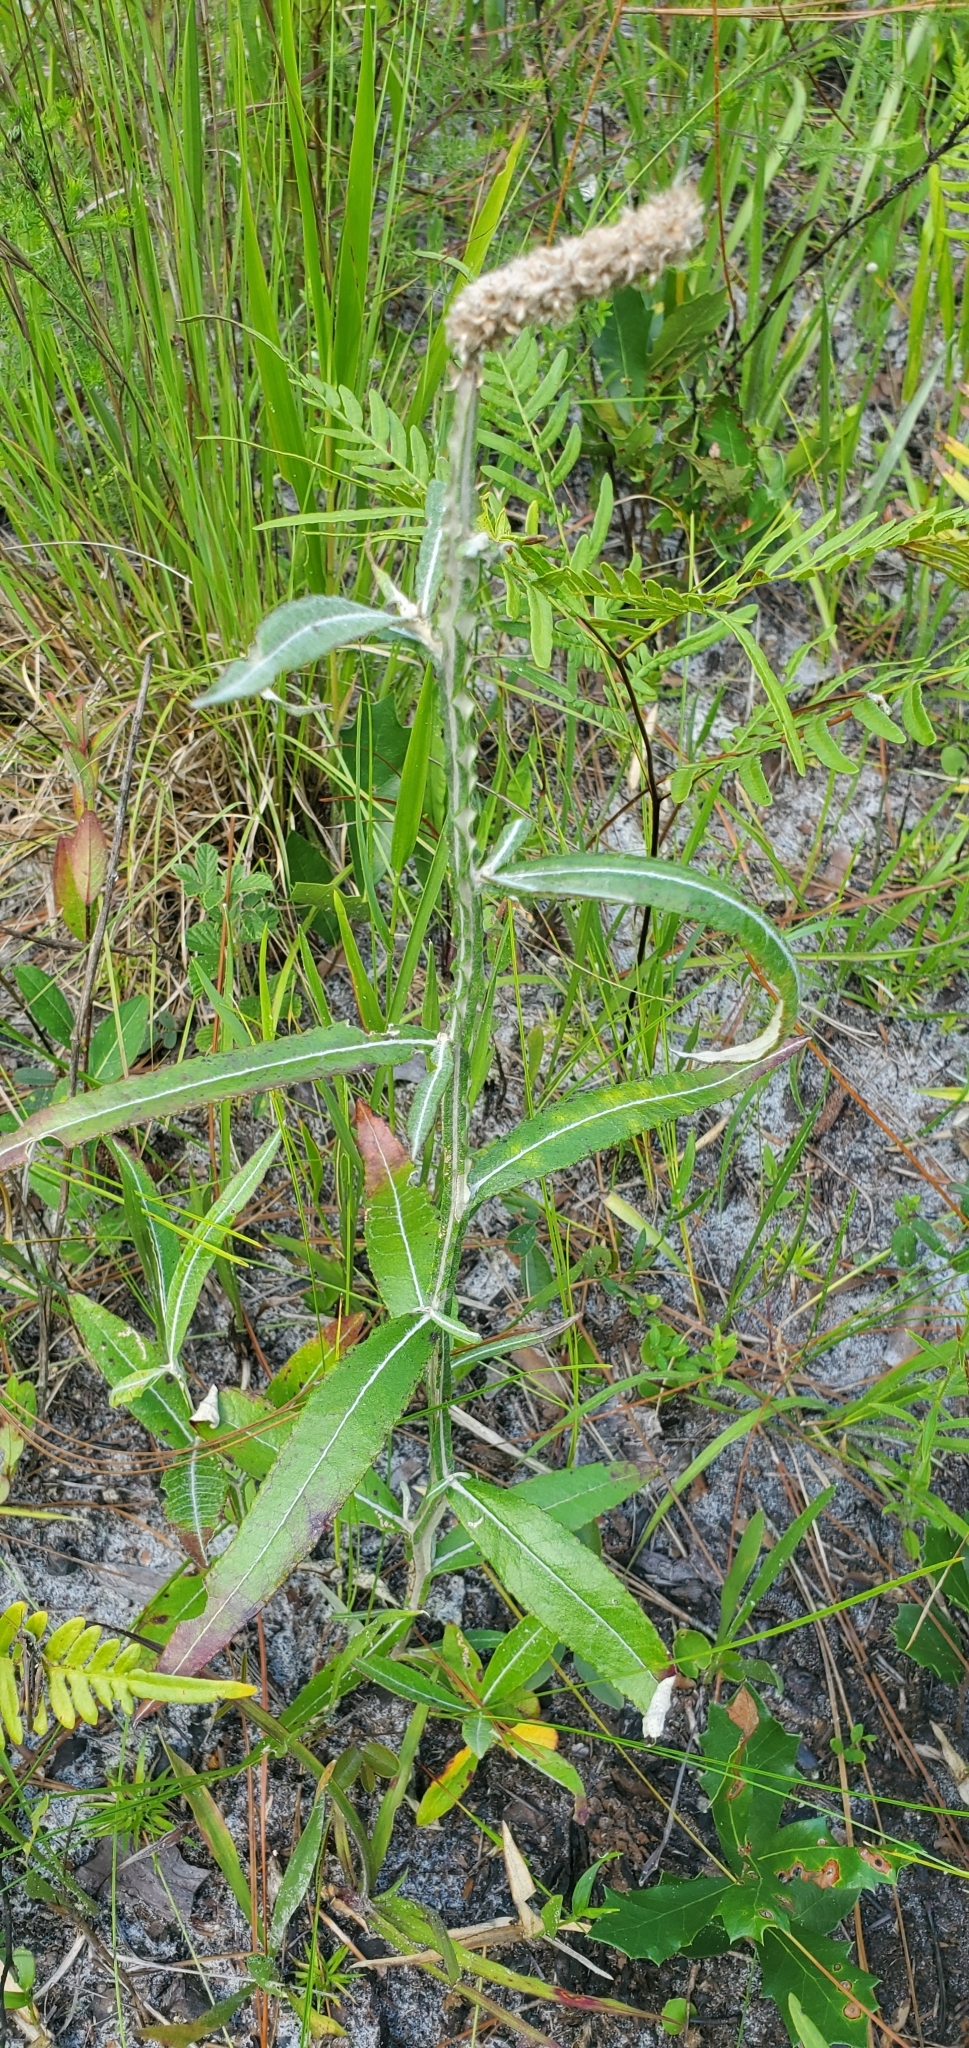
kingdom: Plantae
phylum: Tracheophyta
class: Magnoliopsida
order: Asterales
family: Asteraceae
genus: Pterocaulon
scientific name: Pterocaulon pycnostachyum
